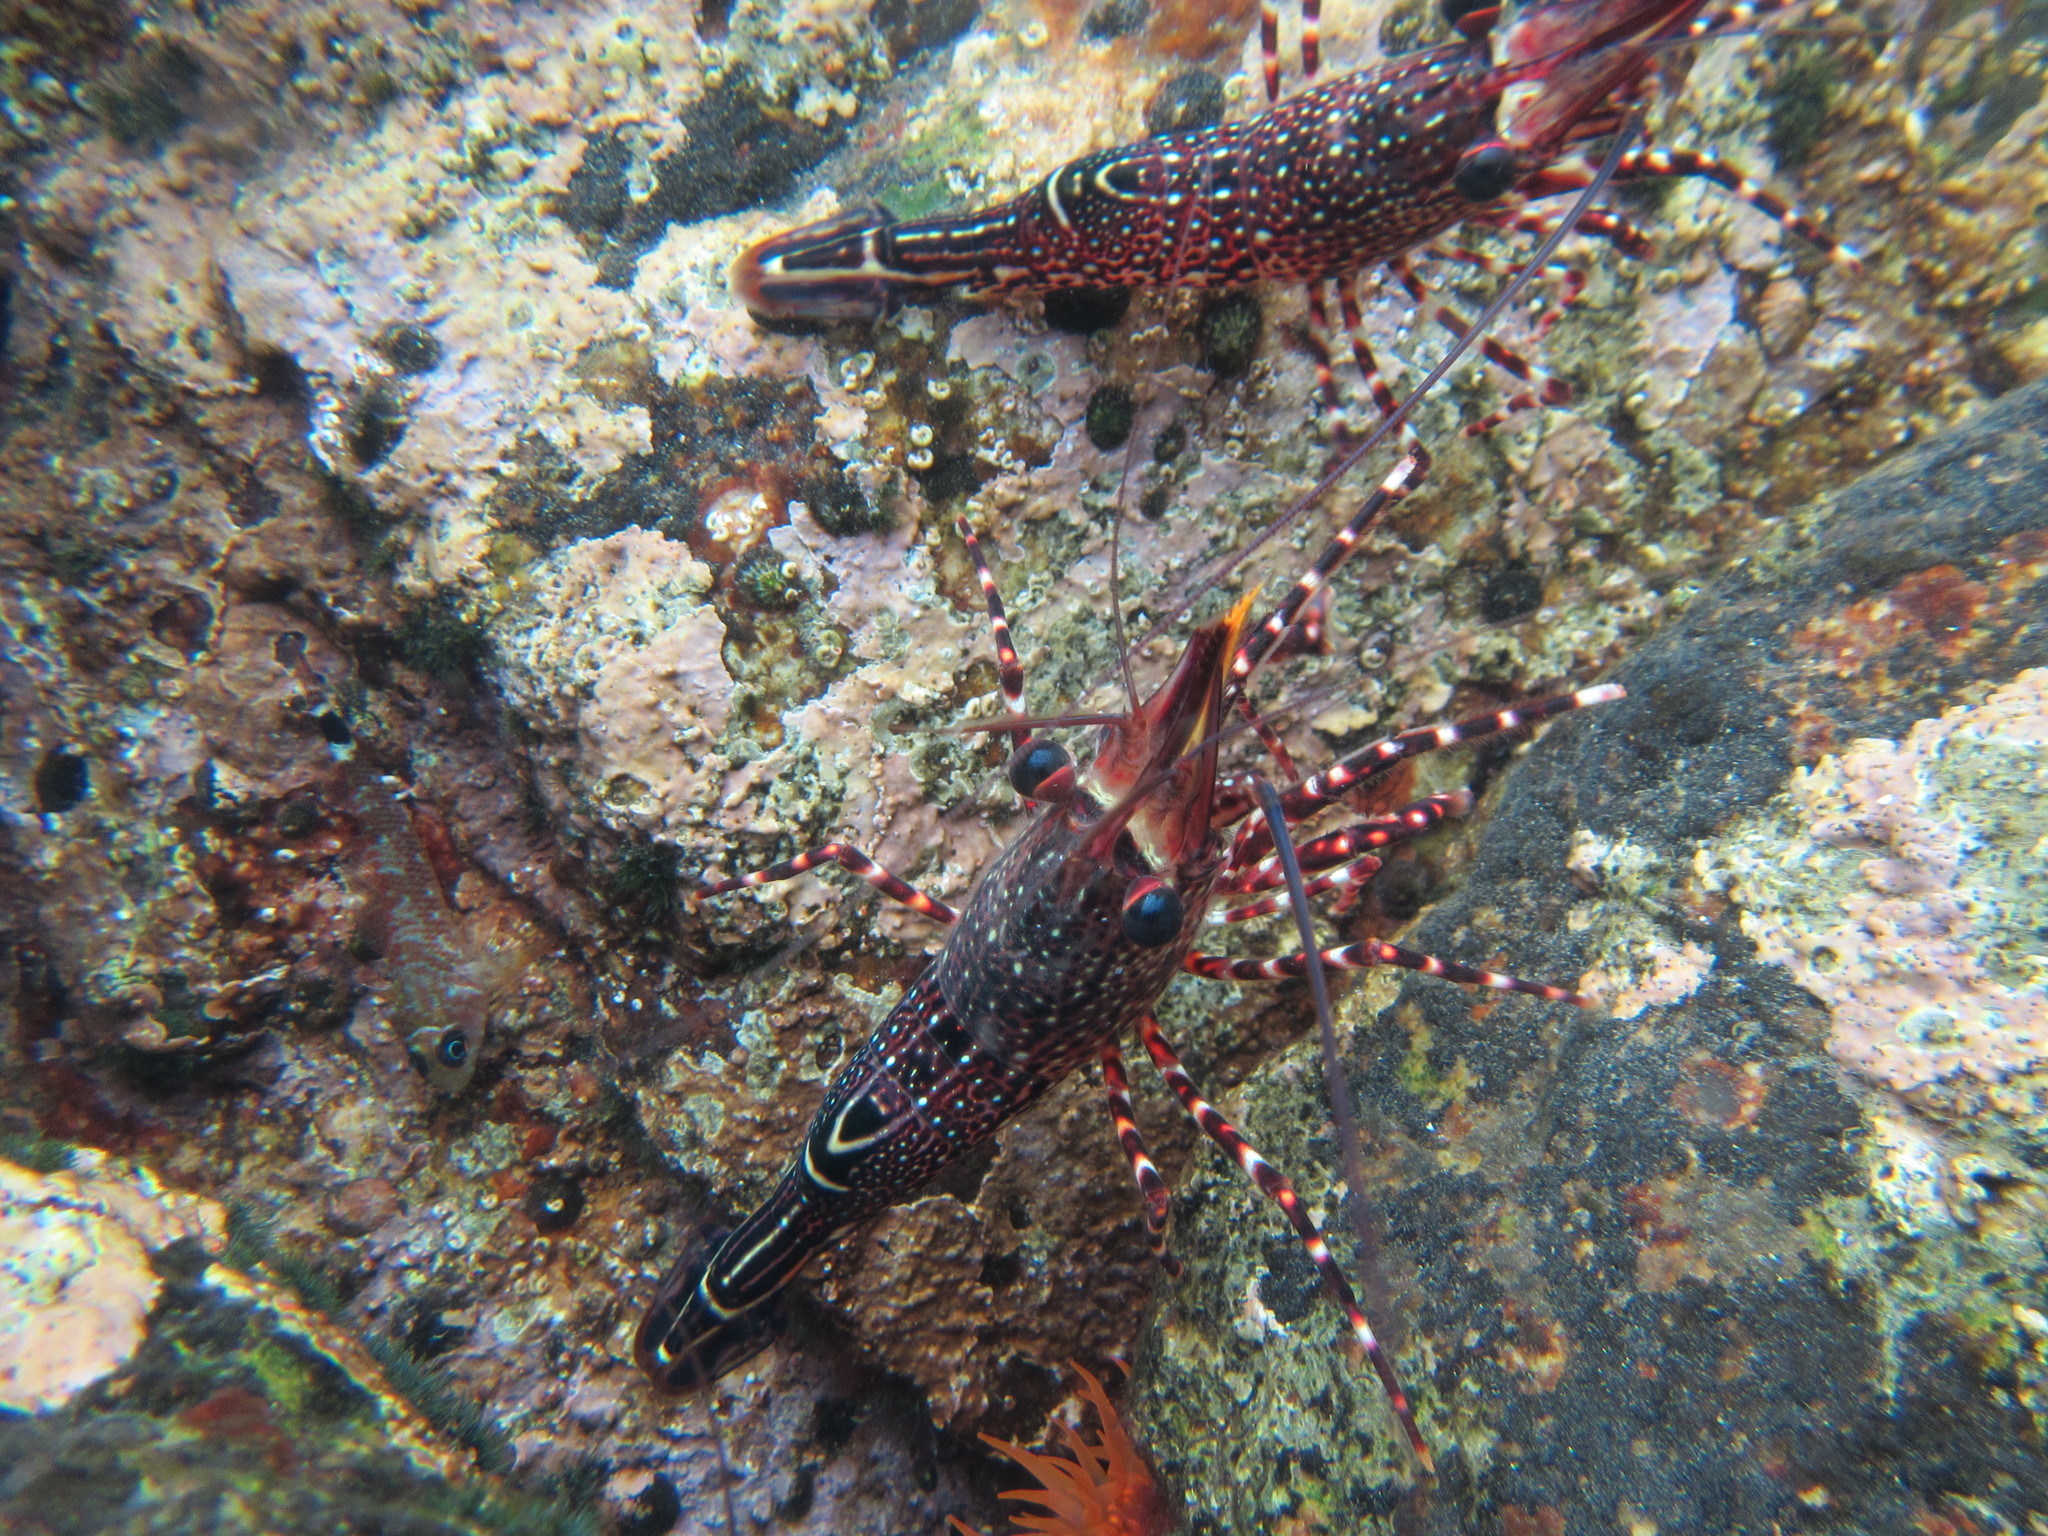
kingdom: Animalia
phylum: Arthropoda
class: Malacostraca
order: Decapoda
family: Rhynchocinetidae
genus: Rhynchocinetes
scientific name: Rhynchocinetes typus
